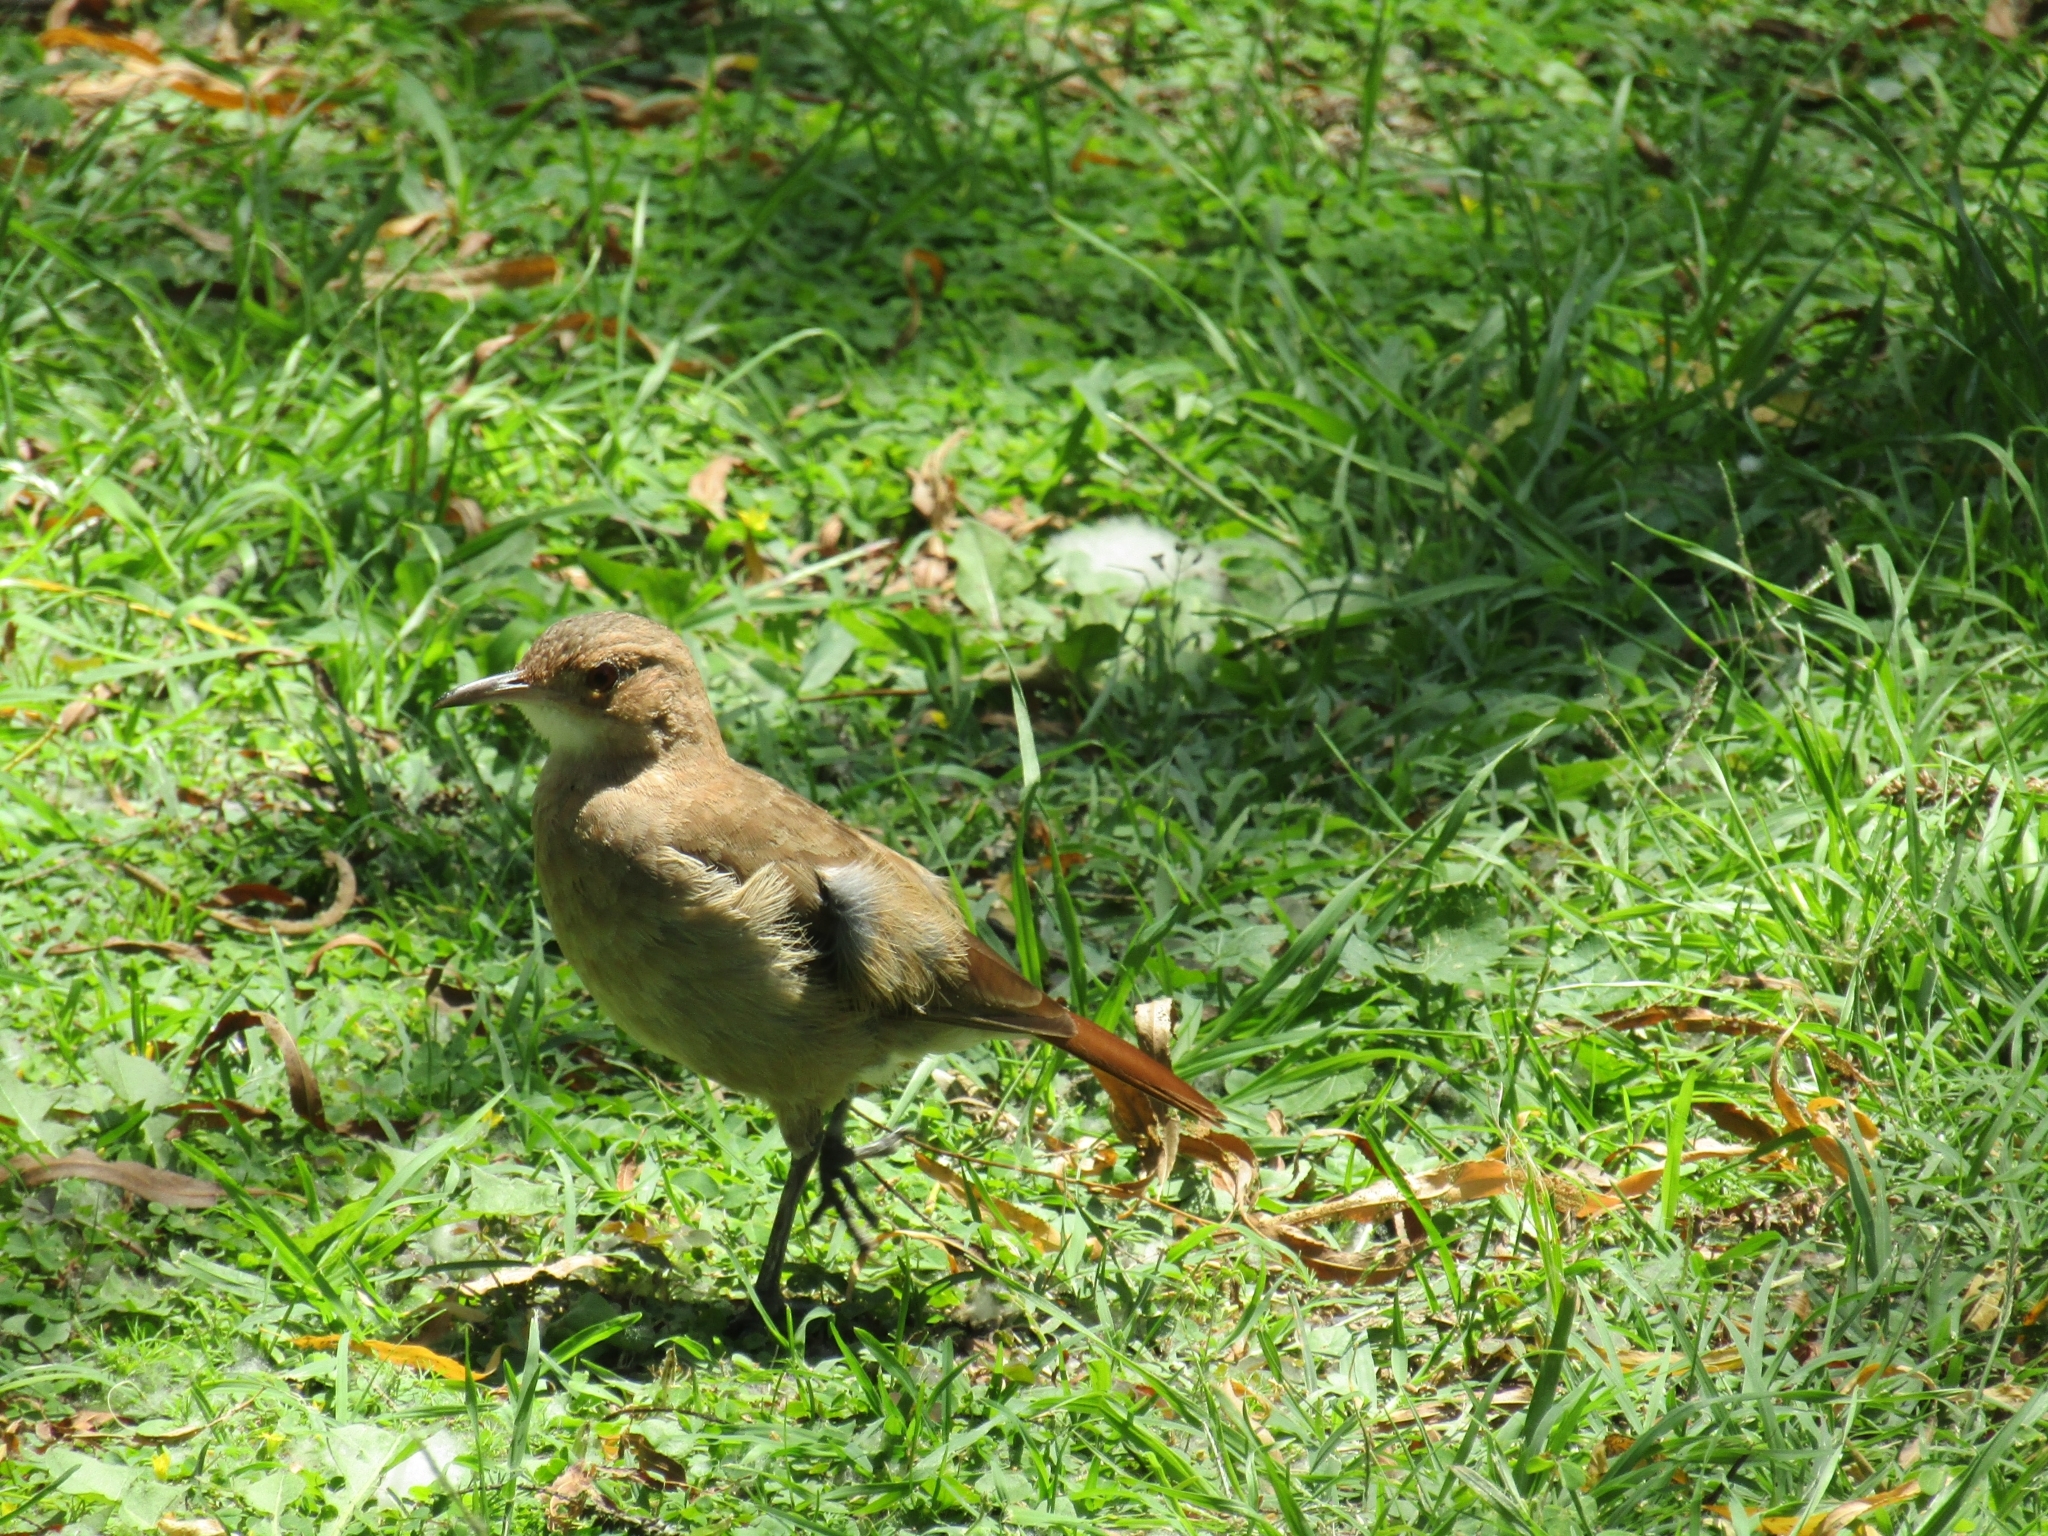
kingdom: Animalia
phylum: Chordata
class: Aves
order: Passeriformes
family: Furnariidae
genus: Furnarius
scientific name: Furnarius rufus
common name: Rufous hornero
